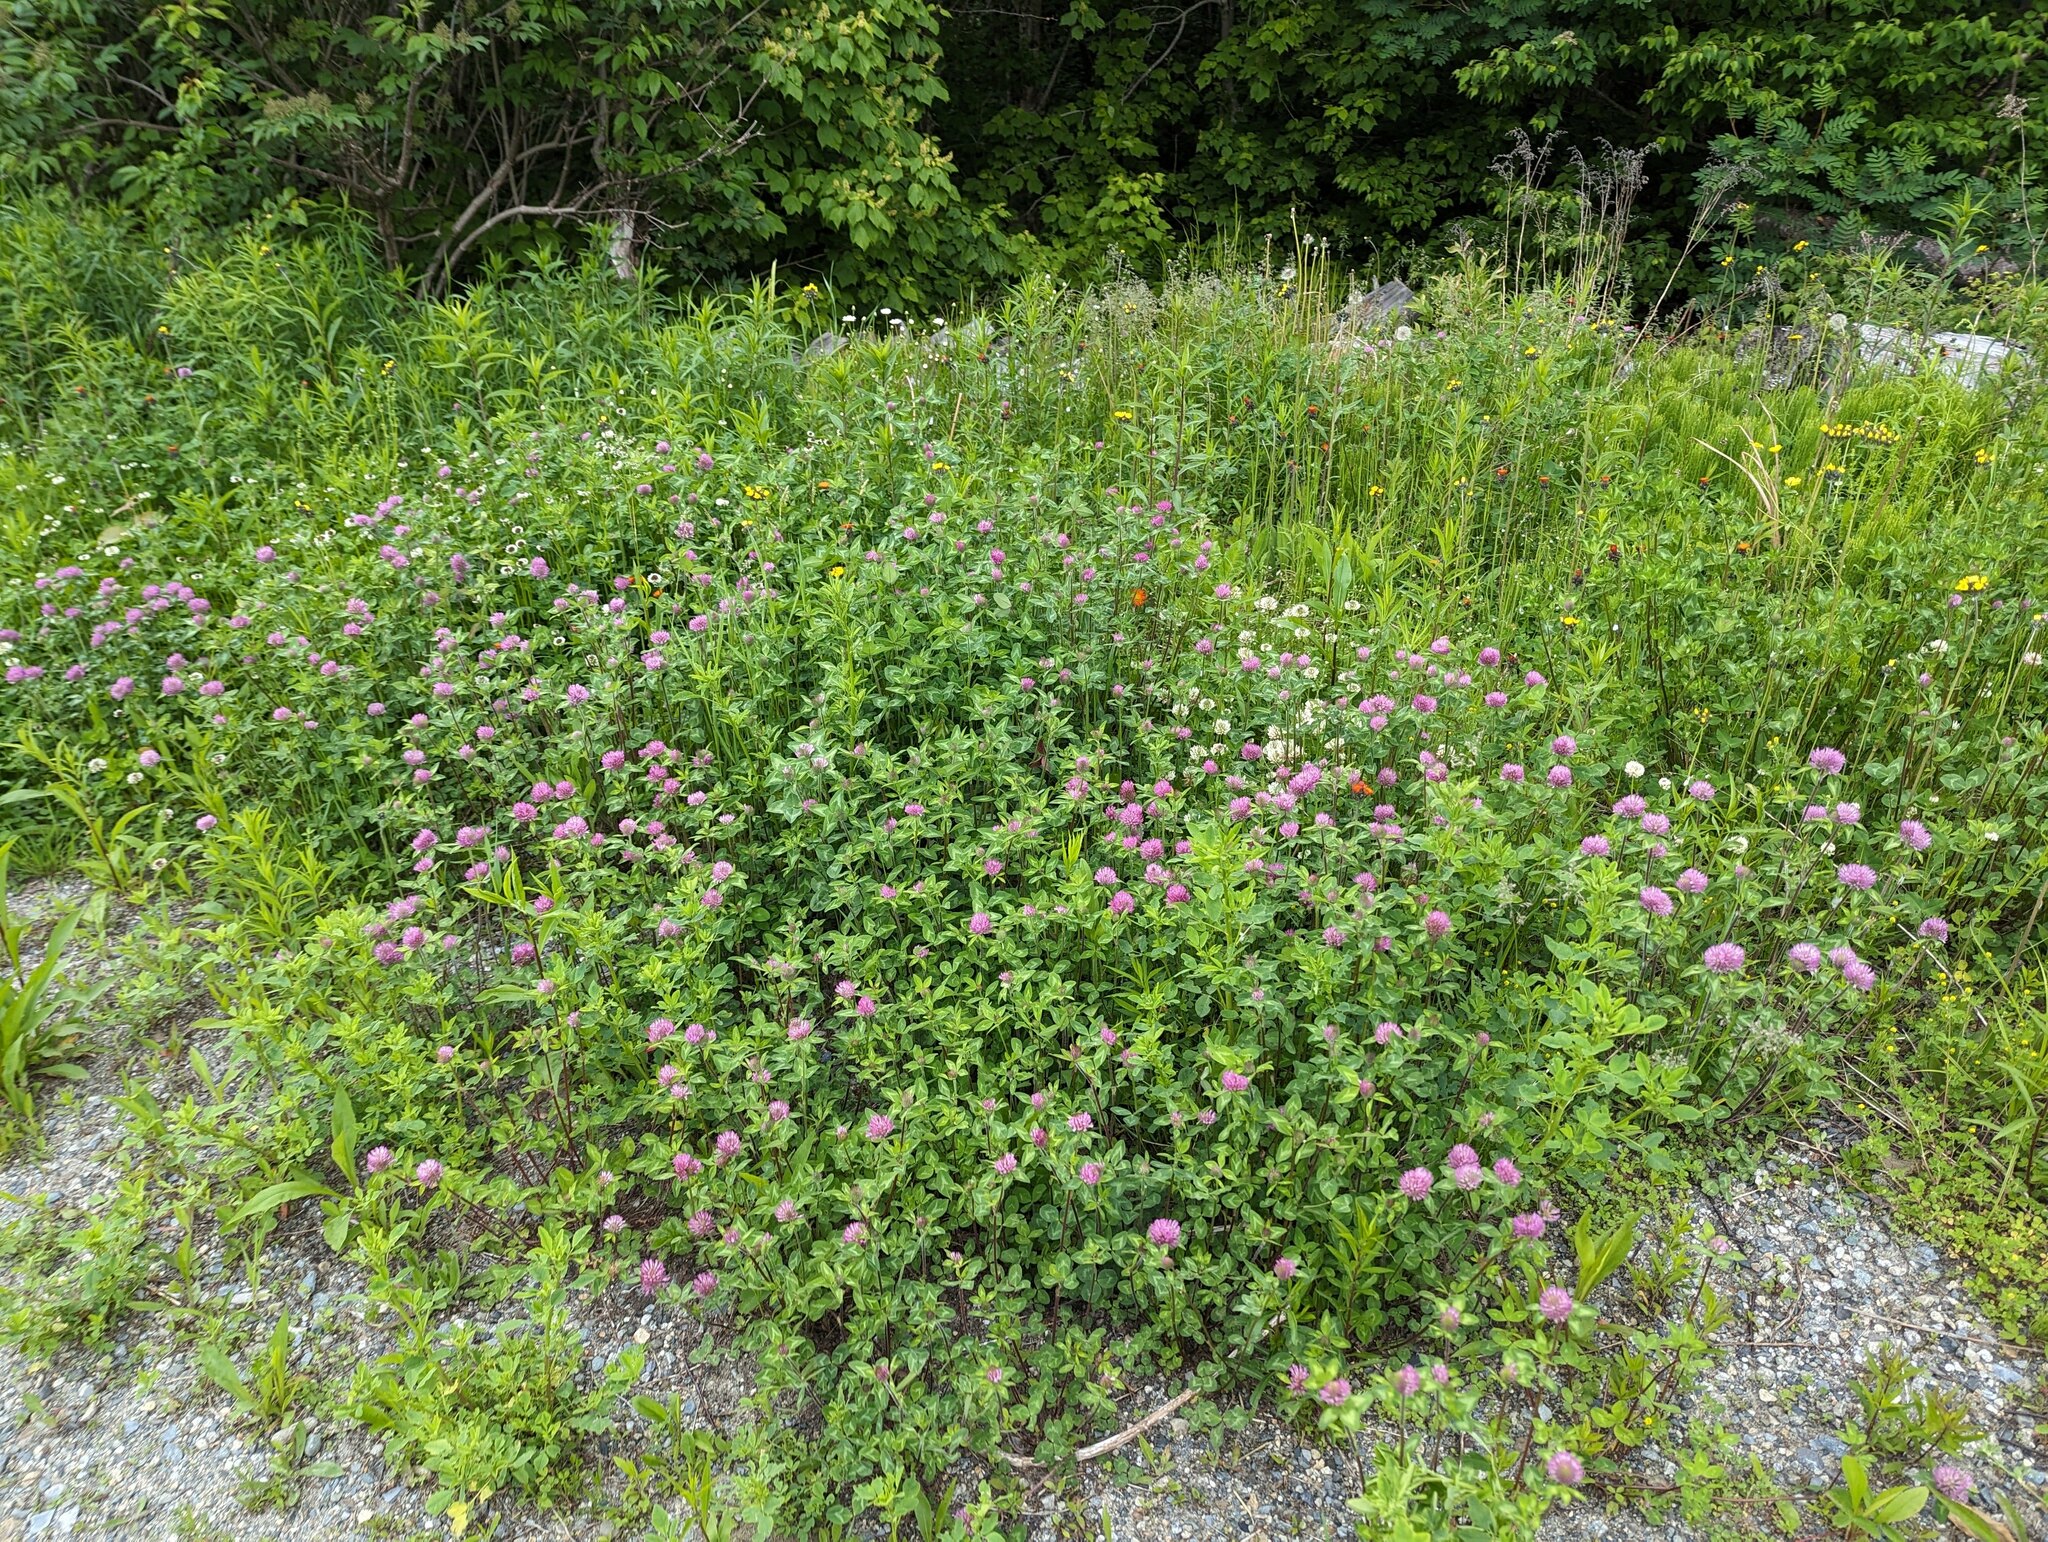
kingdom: Plantae
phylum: Tracheophyta
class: Magnoliopsida
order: Fabales
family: Fabaceae
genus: Trifolium
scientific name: Trifolium pratense
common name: Red clover
